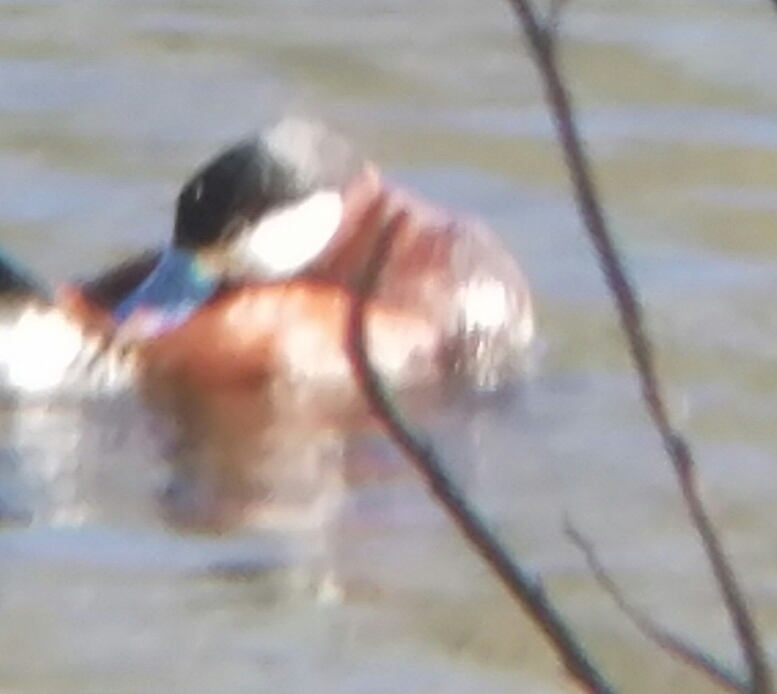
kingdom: Animalia
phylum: Chordata
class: Aves
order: Anseriformes
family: Anatidae
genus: Oxyura
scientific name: Oxyura jamaicensis
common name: Ruddy duck
